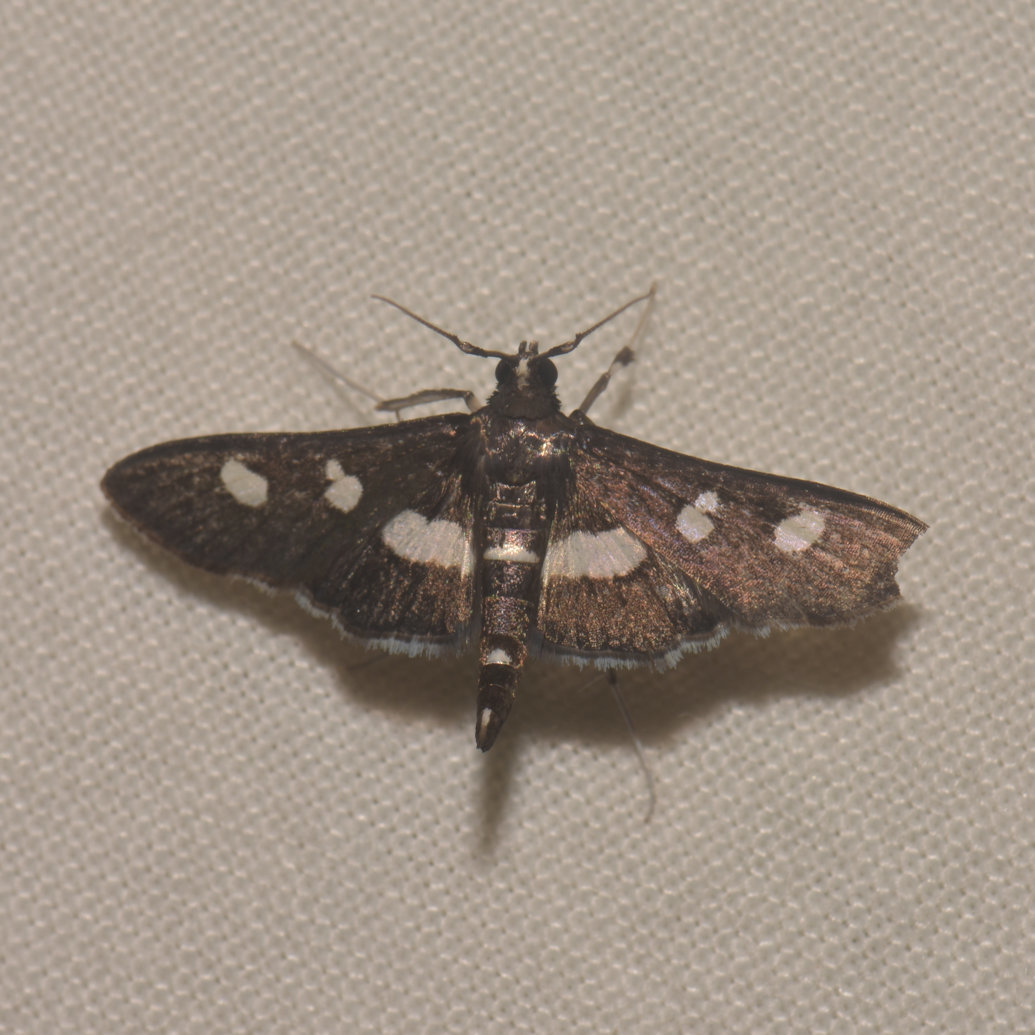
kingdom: Animalia
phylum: Arthropoda
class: Insecta
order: Lepidoptera
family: Crambidae
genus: Desmia
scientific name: Desmia funeralis
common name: Grape leaf folder moth
